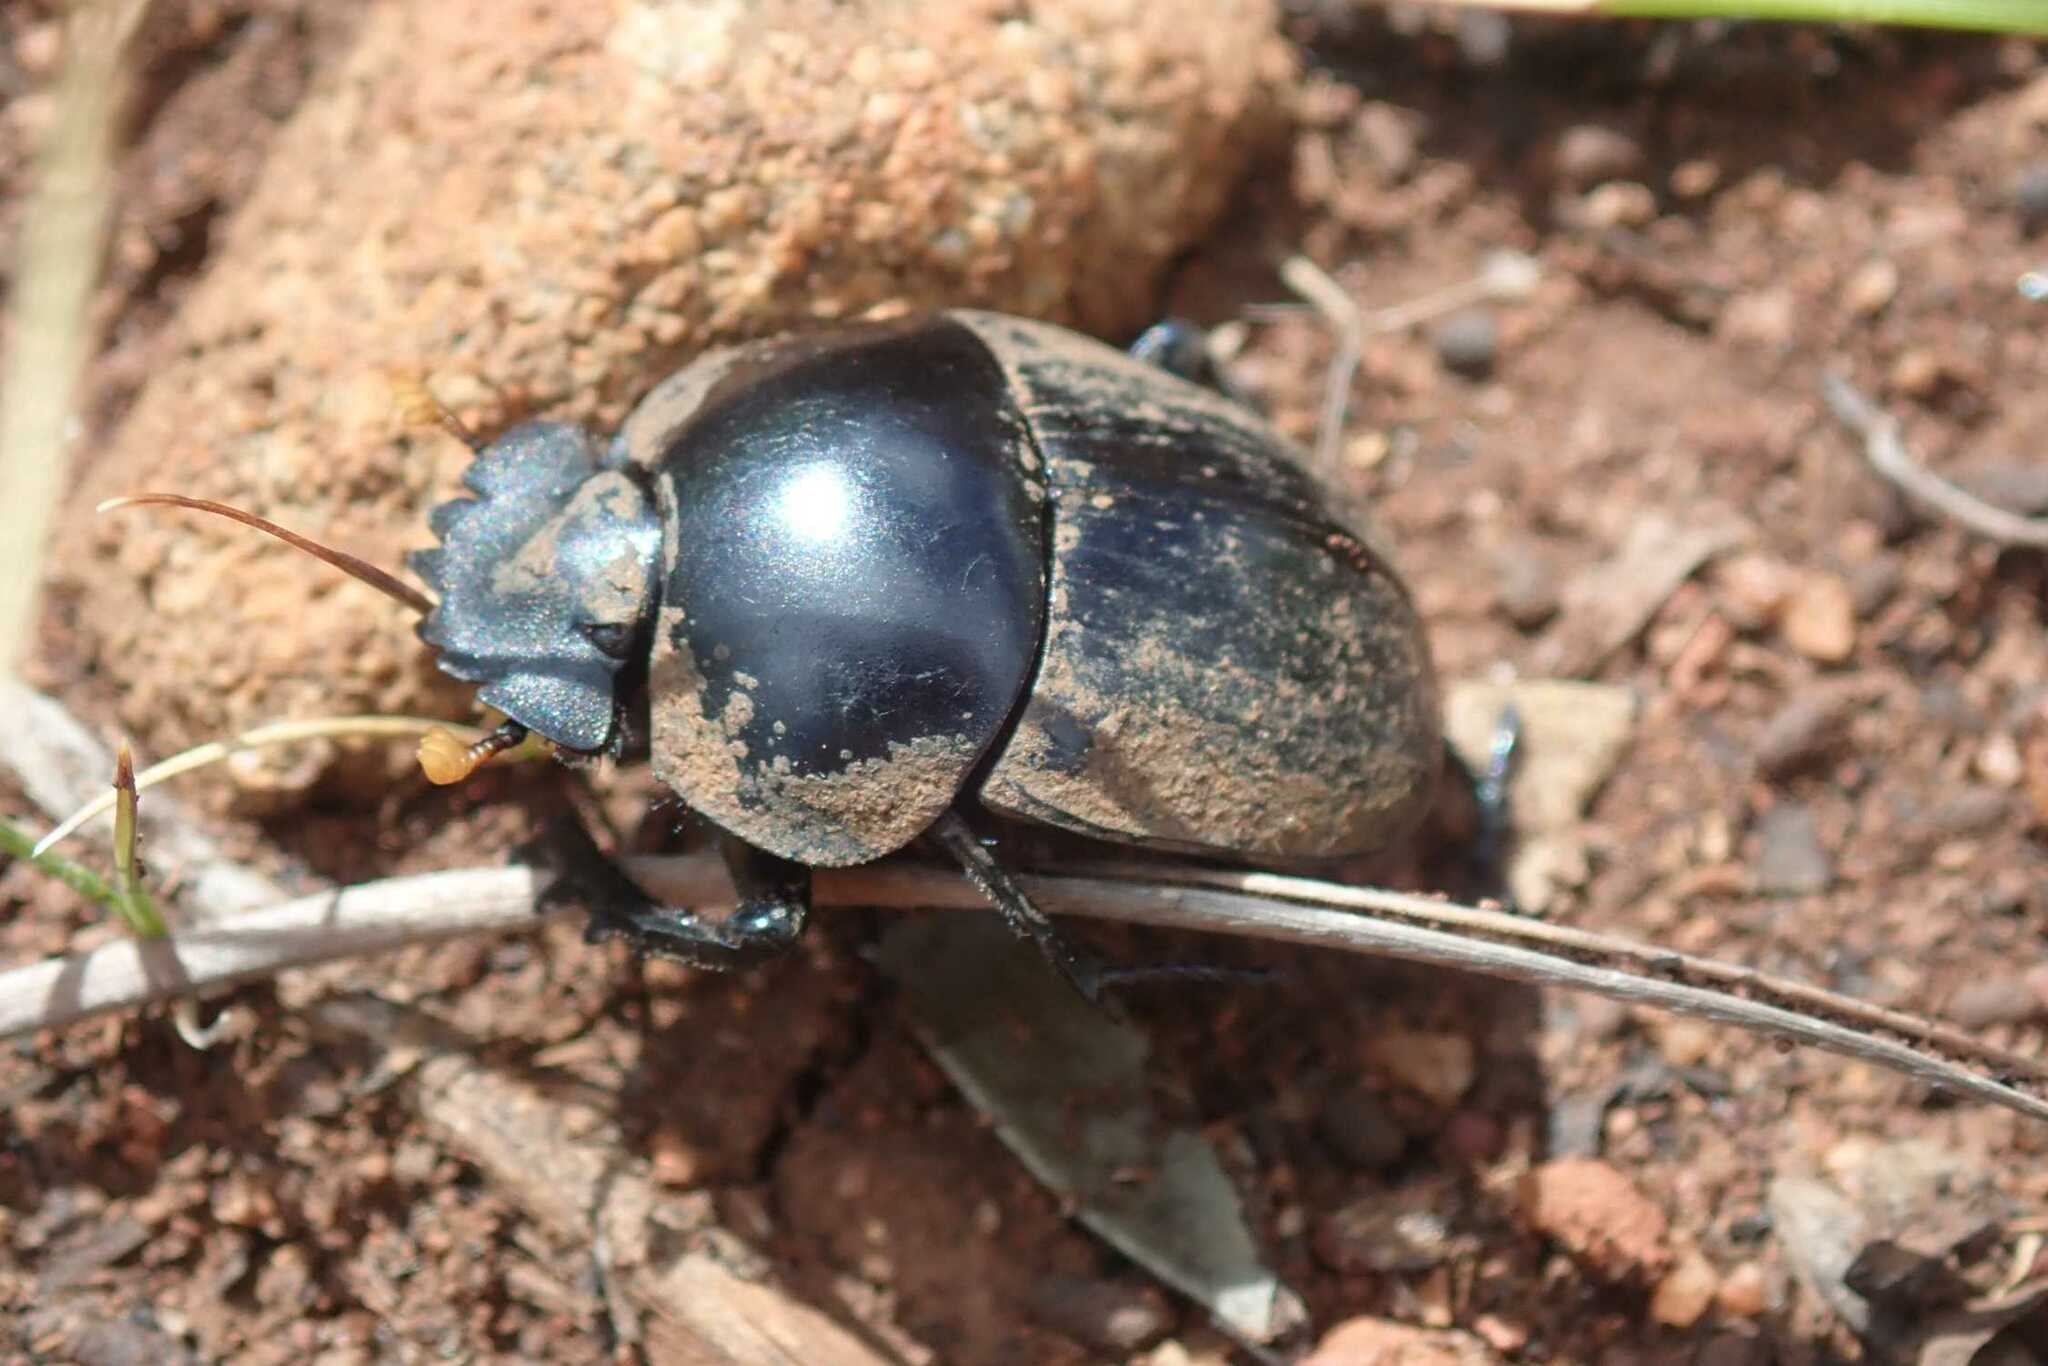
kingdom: Animalia
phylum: Arthropoda
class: Insecta
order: Coleoptera
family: Scarabaeidae
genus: Scarabaeus
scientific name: Scarabaeus rusticus
